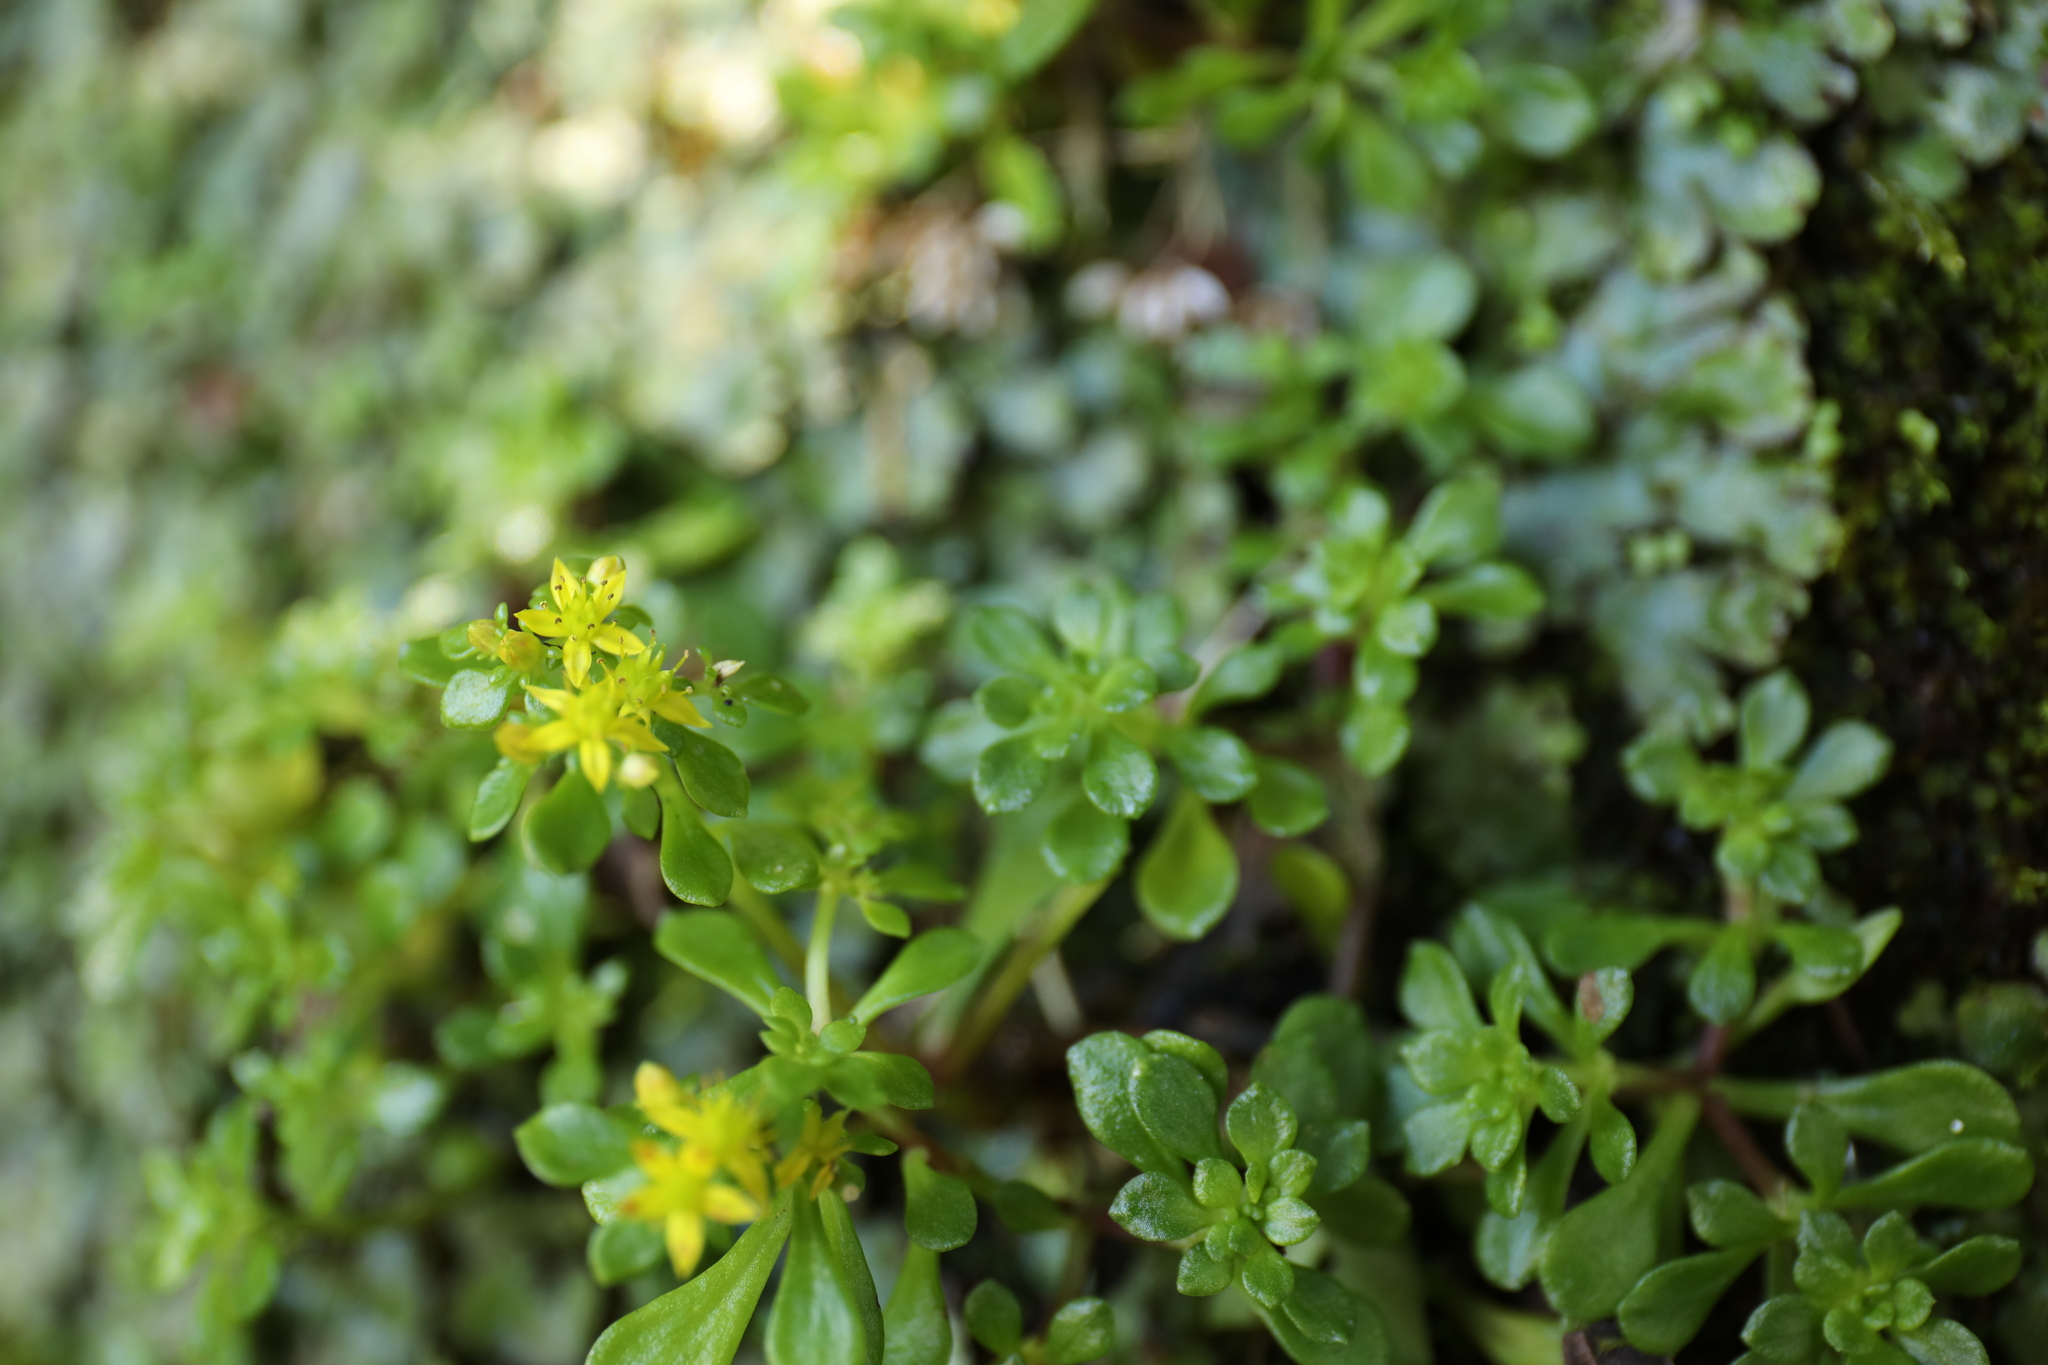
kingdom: Plantae
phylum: Tracheophyta
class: Magnoliopsida
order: Saxifragales
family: Crassulaceae
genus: Sedum
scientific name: Sedum actinocarpum
